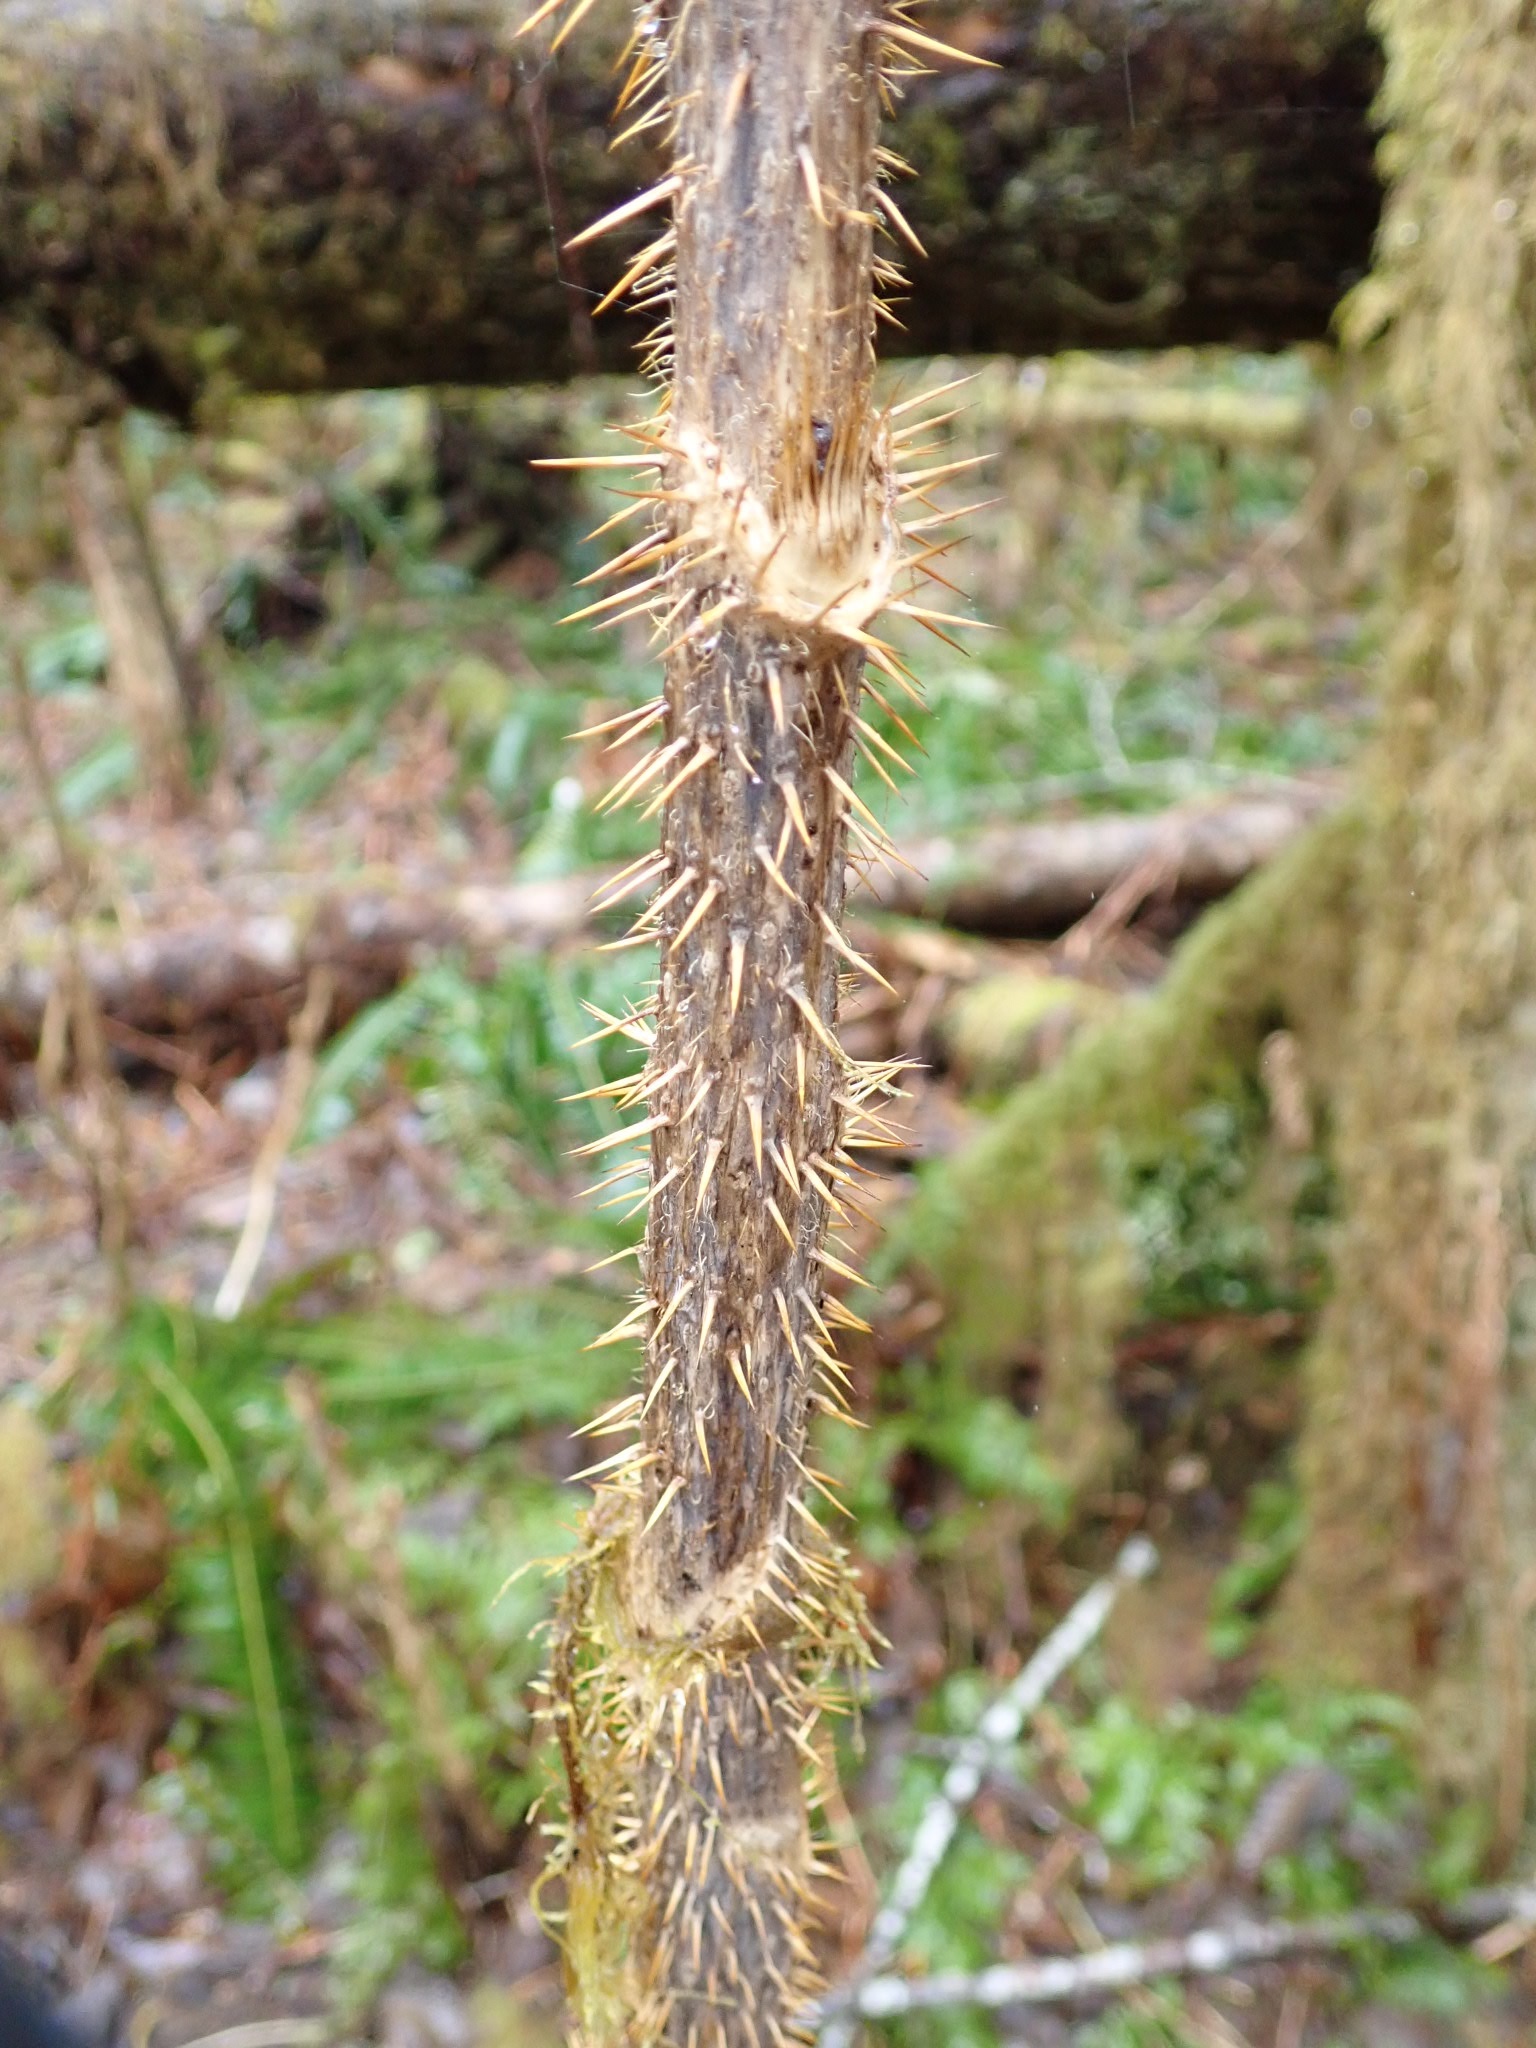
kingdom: Plantae
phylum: Tracheophyta
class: Magnoliopsida
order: Apiales
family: Araliaceae
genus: Oplopanax
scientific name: Oplopanax horridus
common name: Devil's walking-stick
